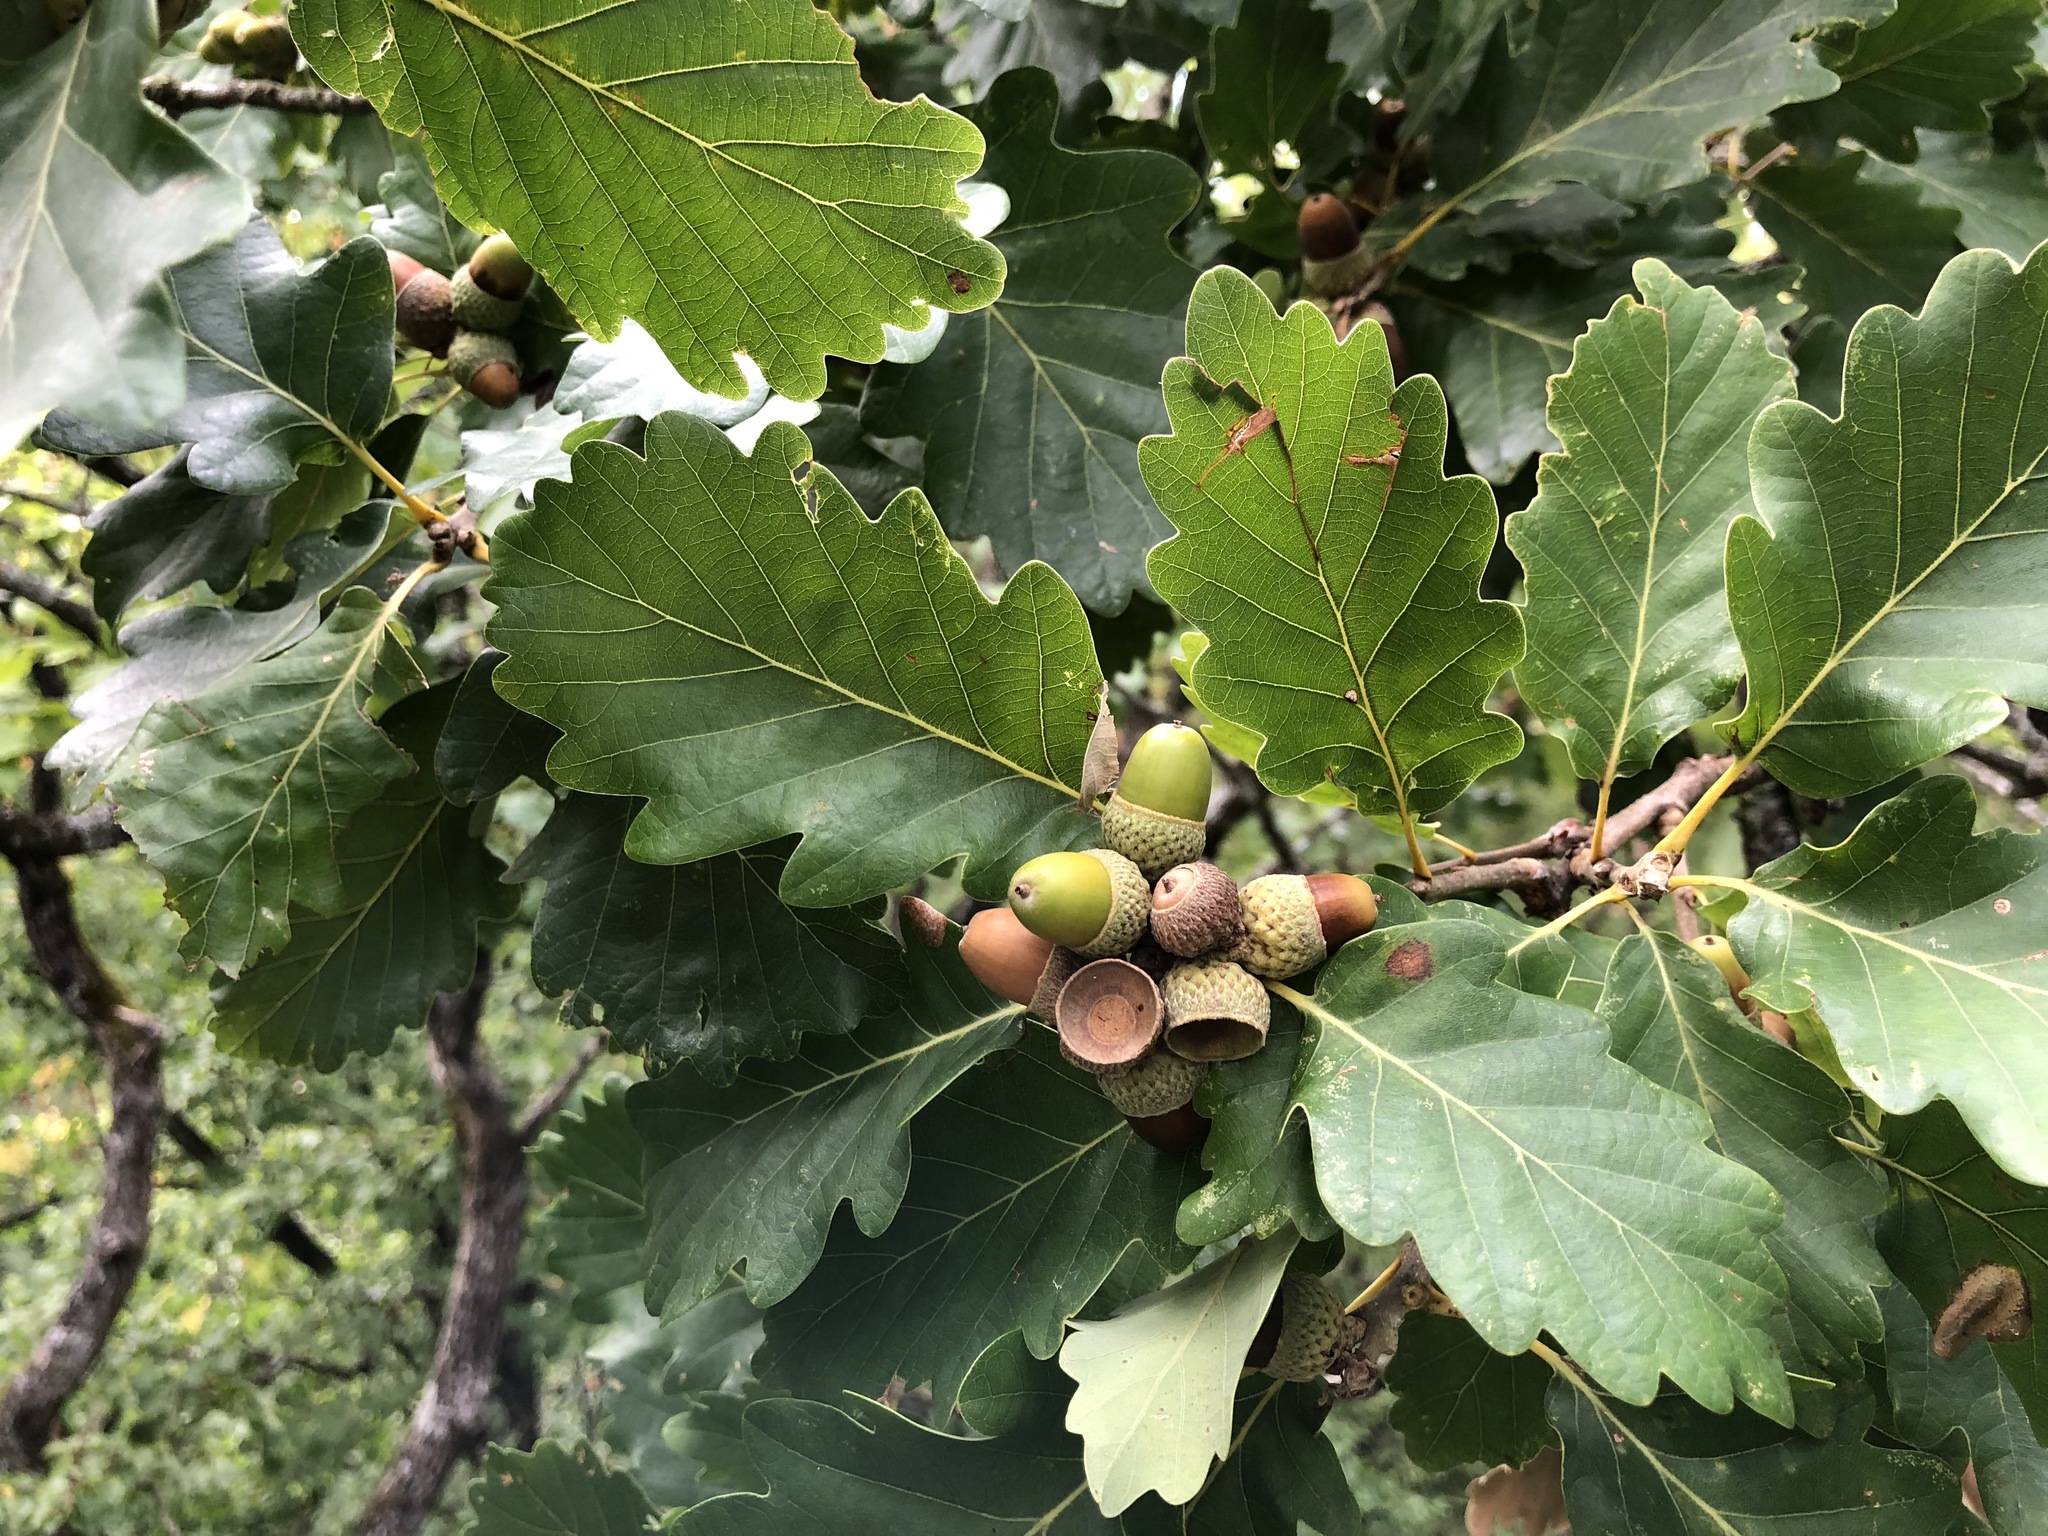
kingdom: Plantae
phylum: Tracheophyta
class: Magnoliopsida
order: Fagales
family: Fagaceae
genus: Quercus
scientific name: Quercus petraea
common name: Sessile oak
